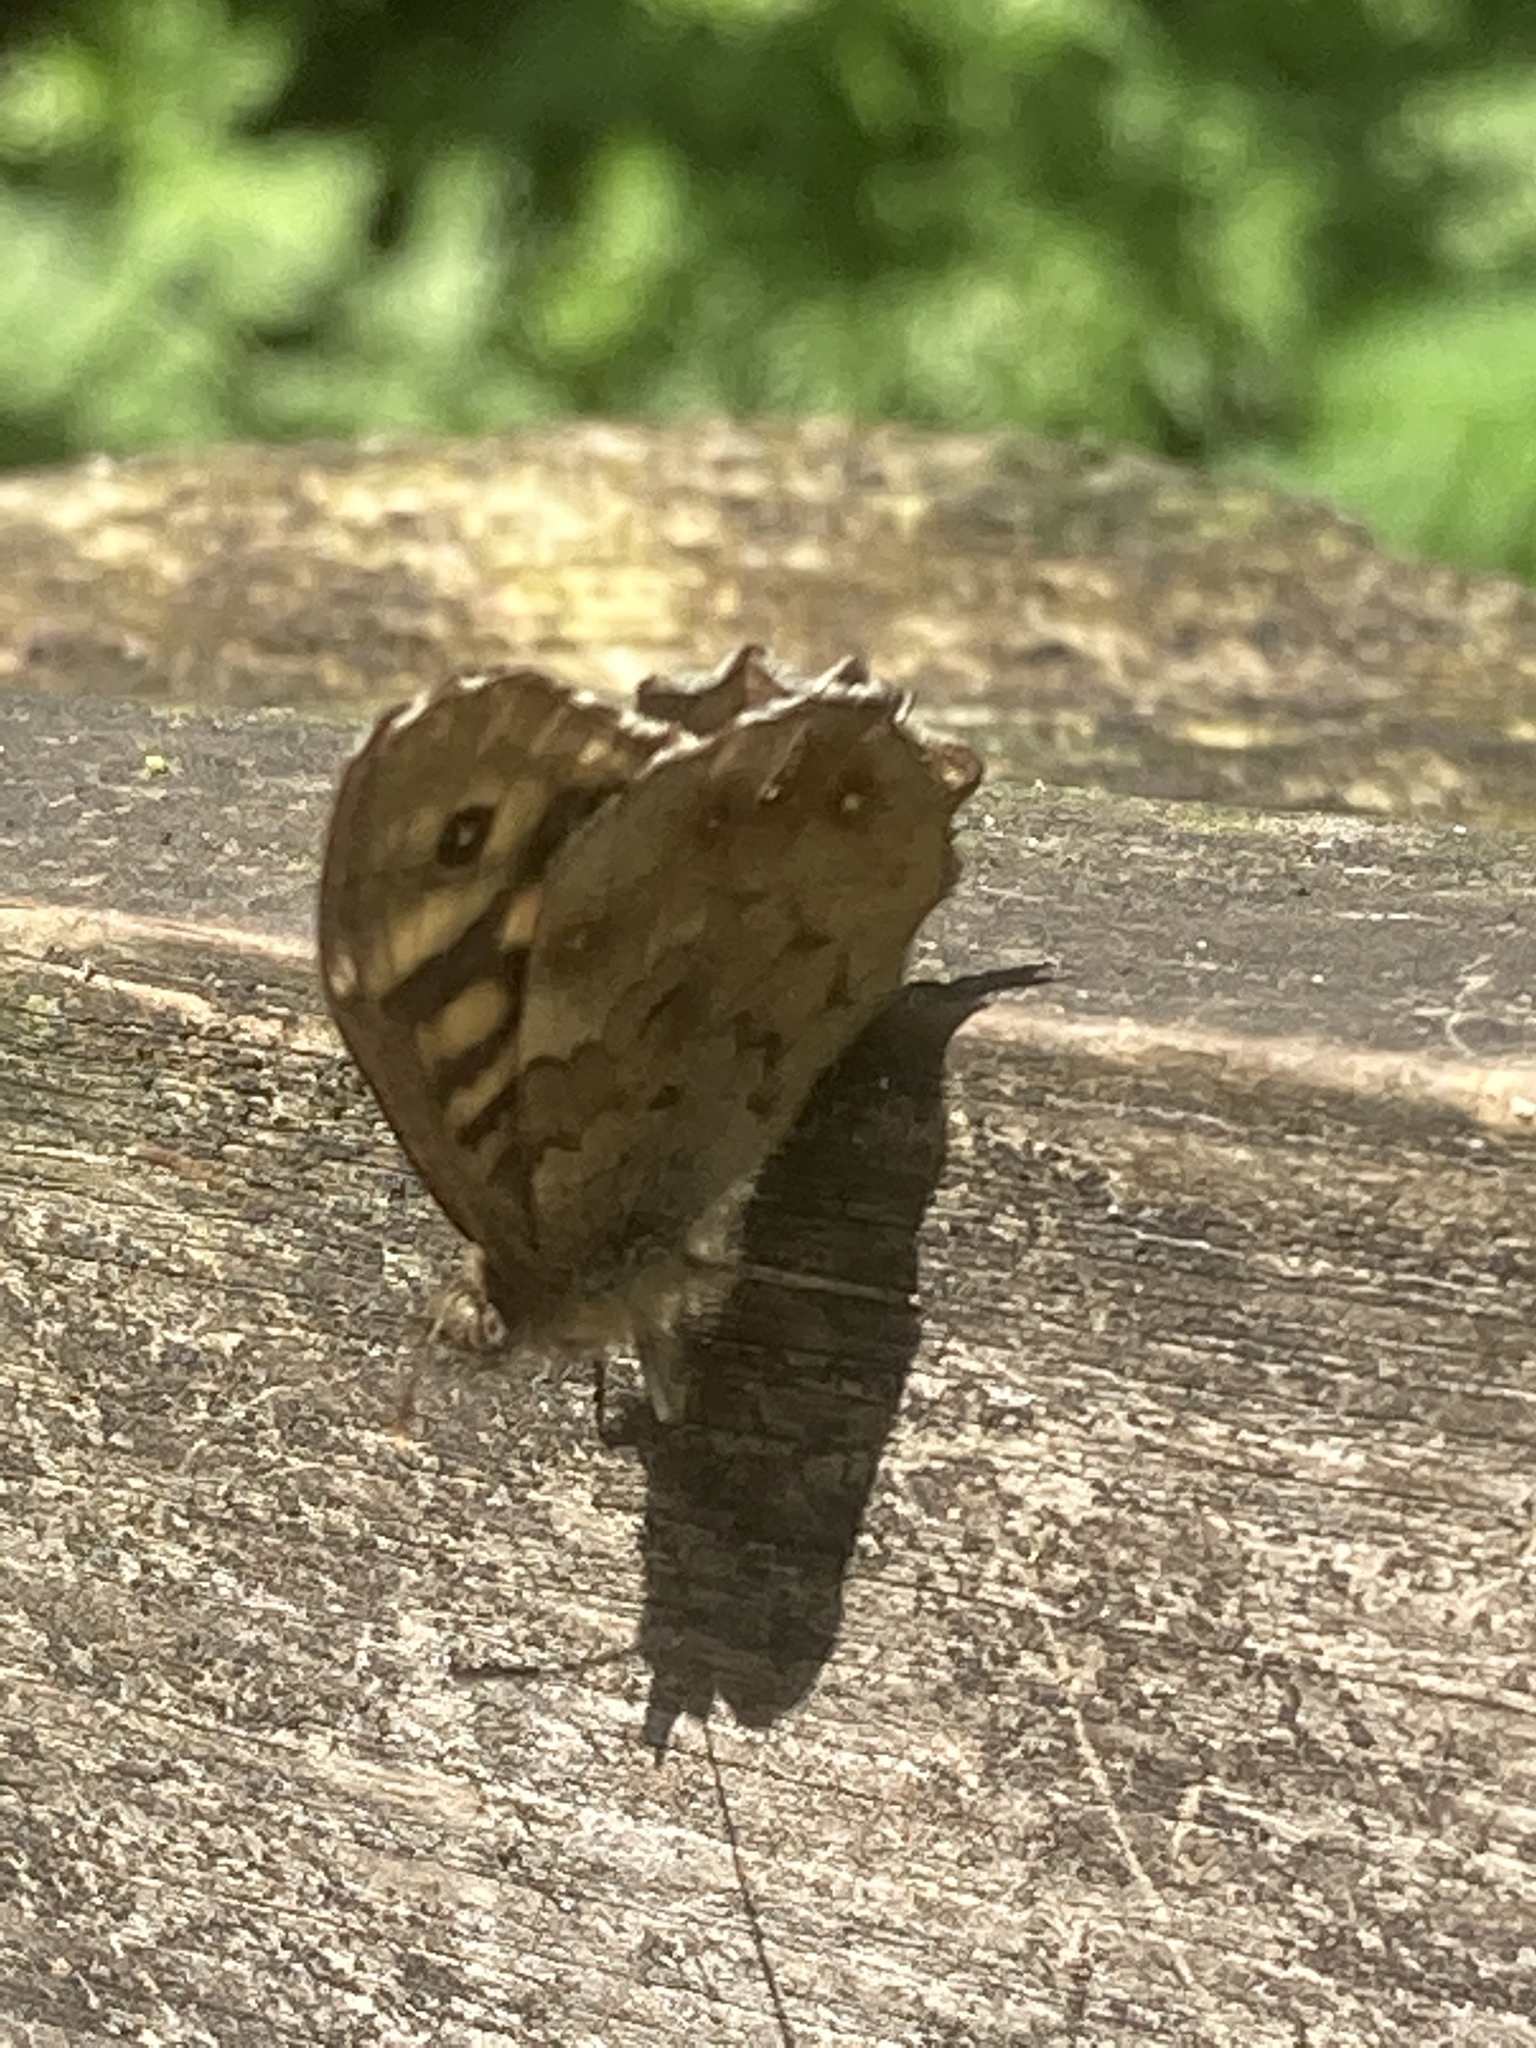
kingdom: Animalia
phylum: Arthropoda
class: Insecta
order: Lepidoptera
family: Nymphalidae
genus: Pararge
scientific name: Pararge aegeria
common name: Speckled wood
